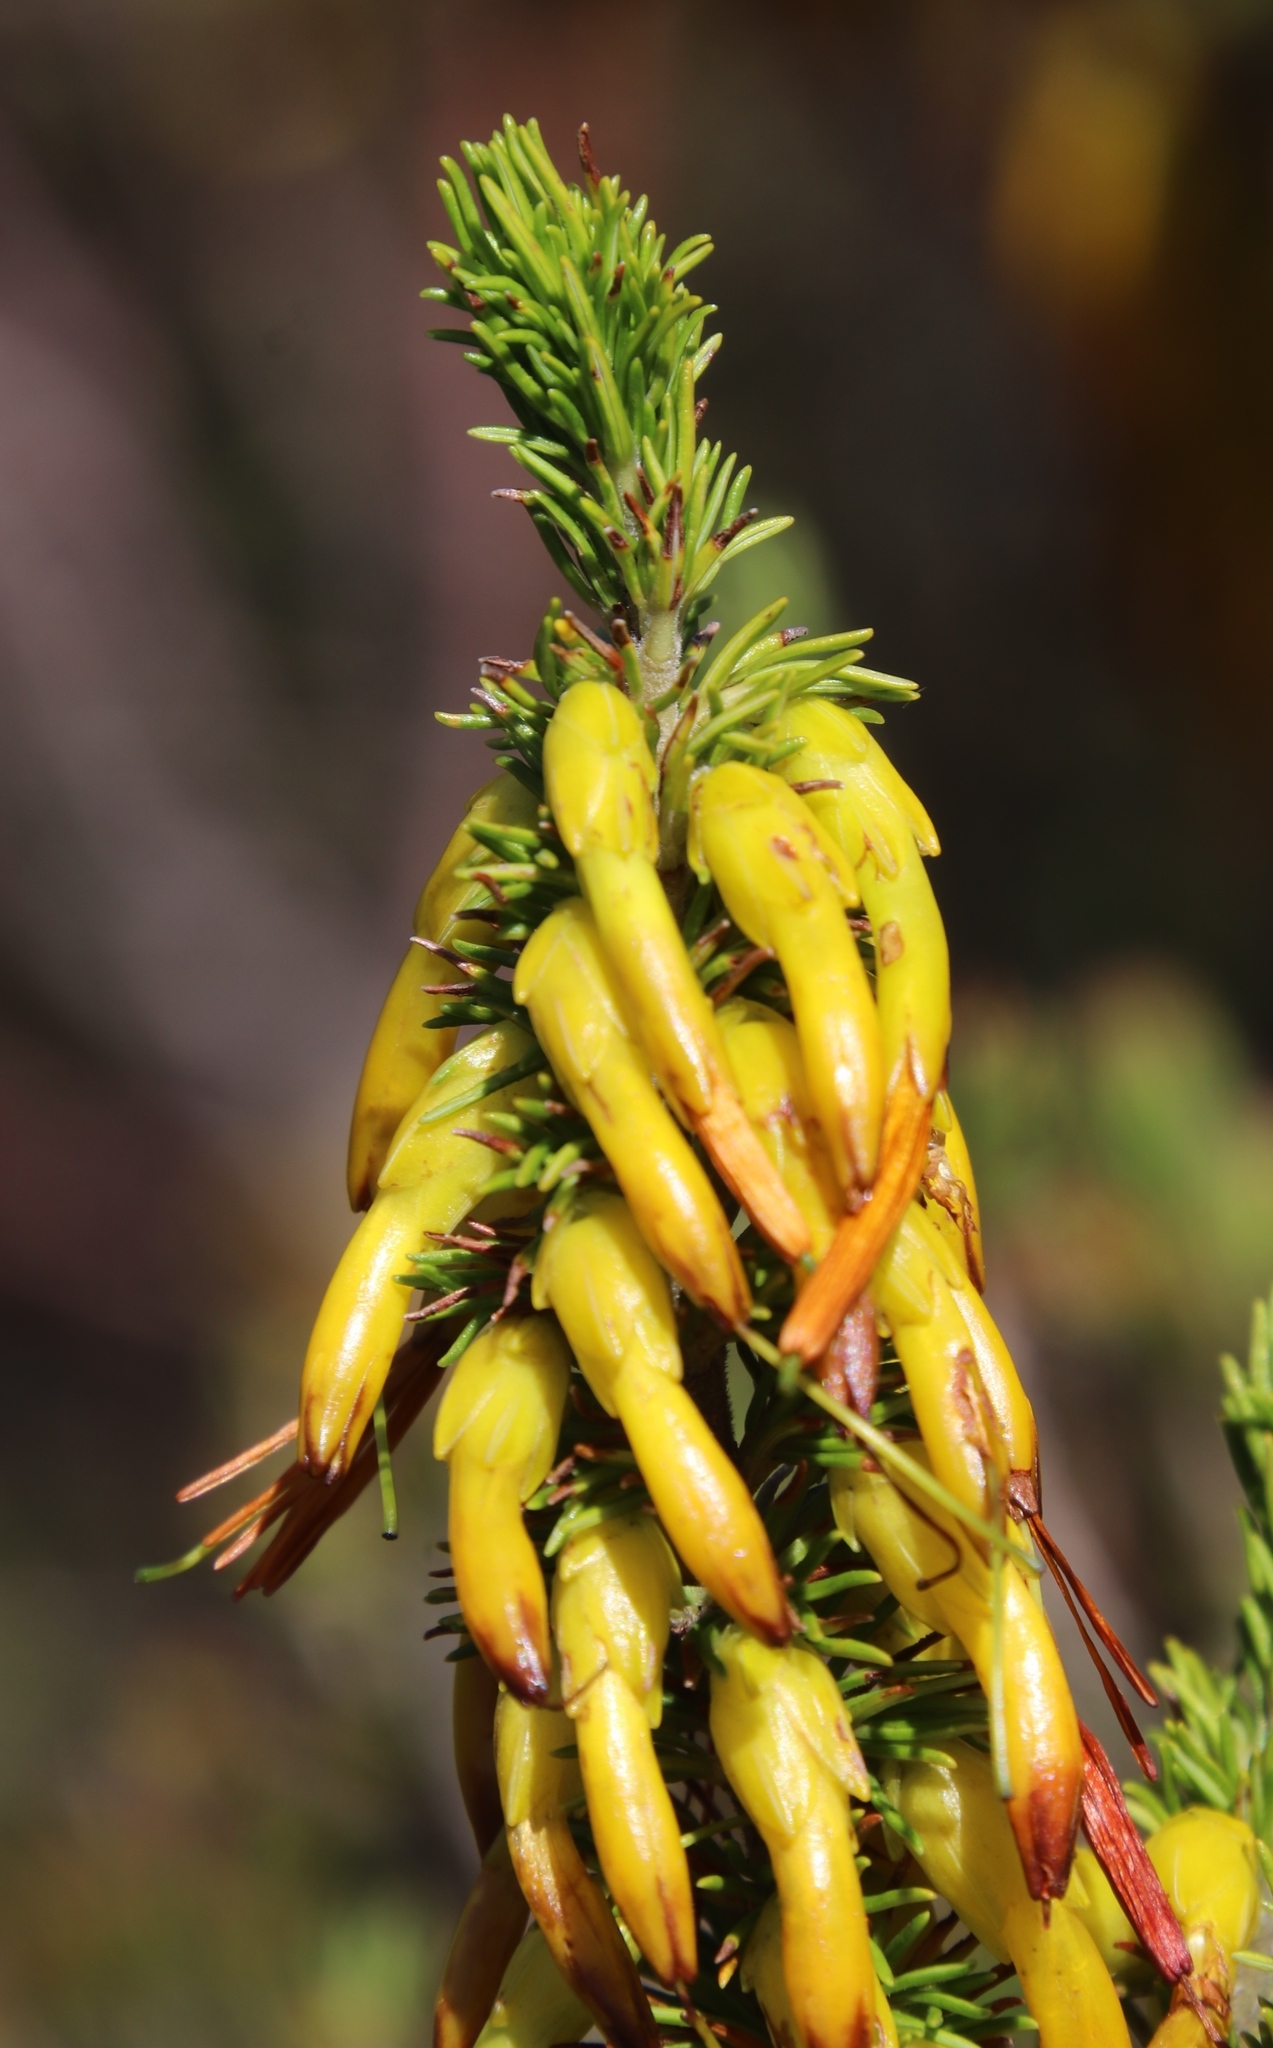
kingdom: Plantae
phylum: Tracheophyta
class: Magnoliopsida
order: Ericales
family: Ericaceae
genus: Erica
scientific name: Erica coccinea
